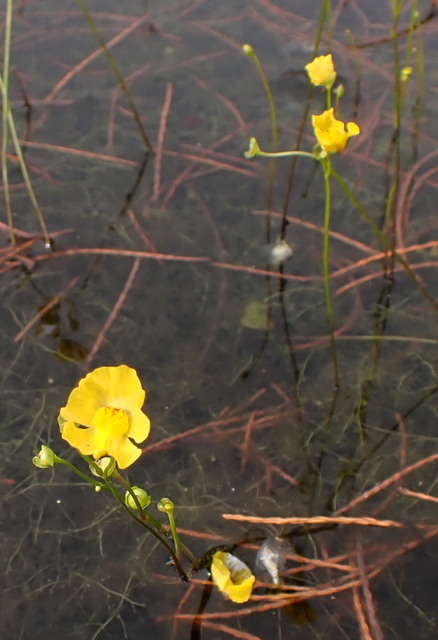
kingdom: Plantae
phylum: Tracheophyta
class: Magnoliopsida
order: Lamiales
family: Lentibulariaceae
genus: Utricularia
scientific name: Utricularia gibba
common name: Humped bladderwort
